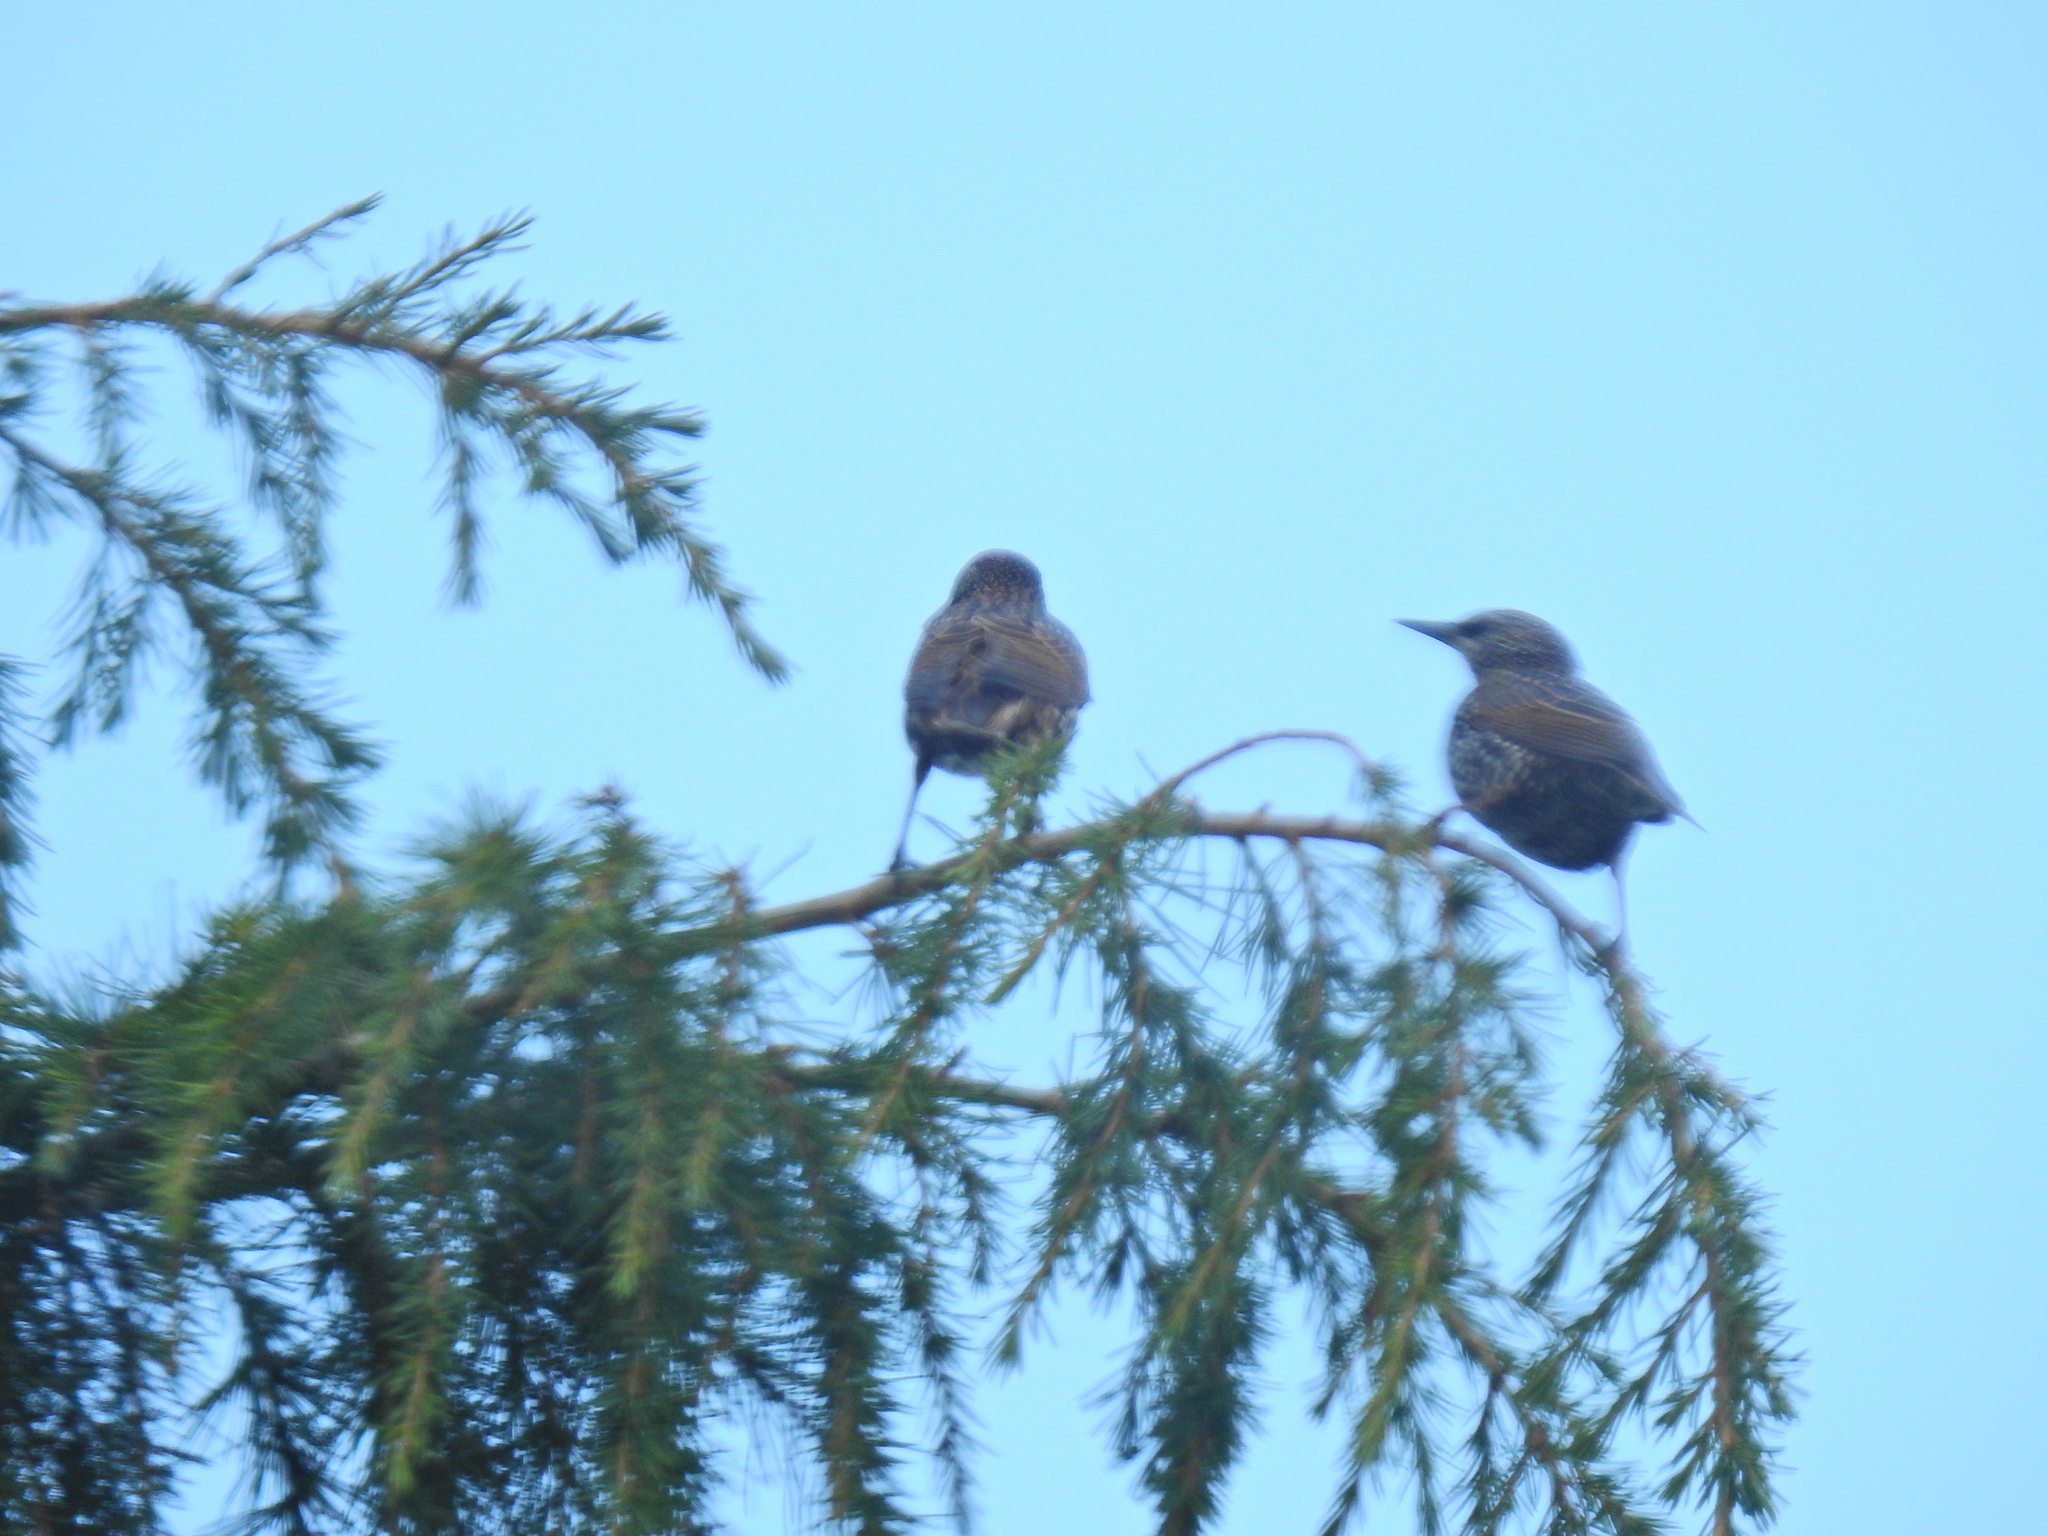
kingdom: Animalia
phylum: Chordata
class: Aves
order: Passeriformes
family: Sturnidae
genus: Sturnus
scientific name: Sturnus vulgaris
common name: Common starling
